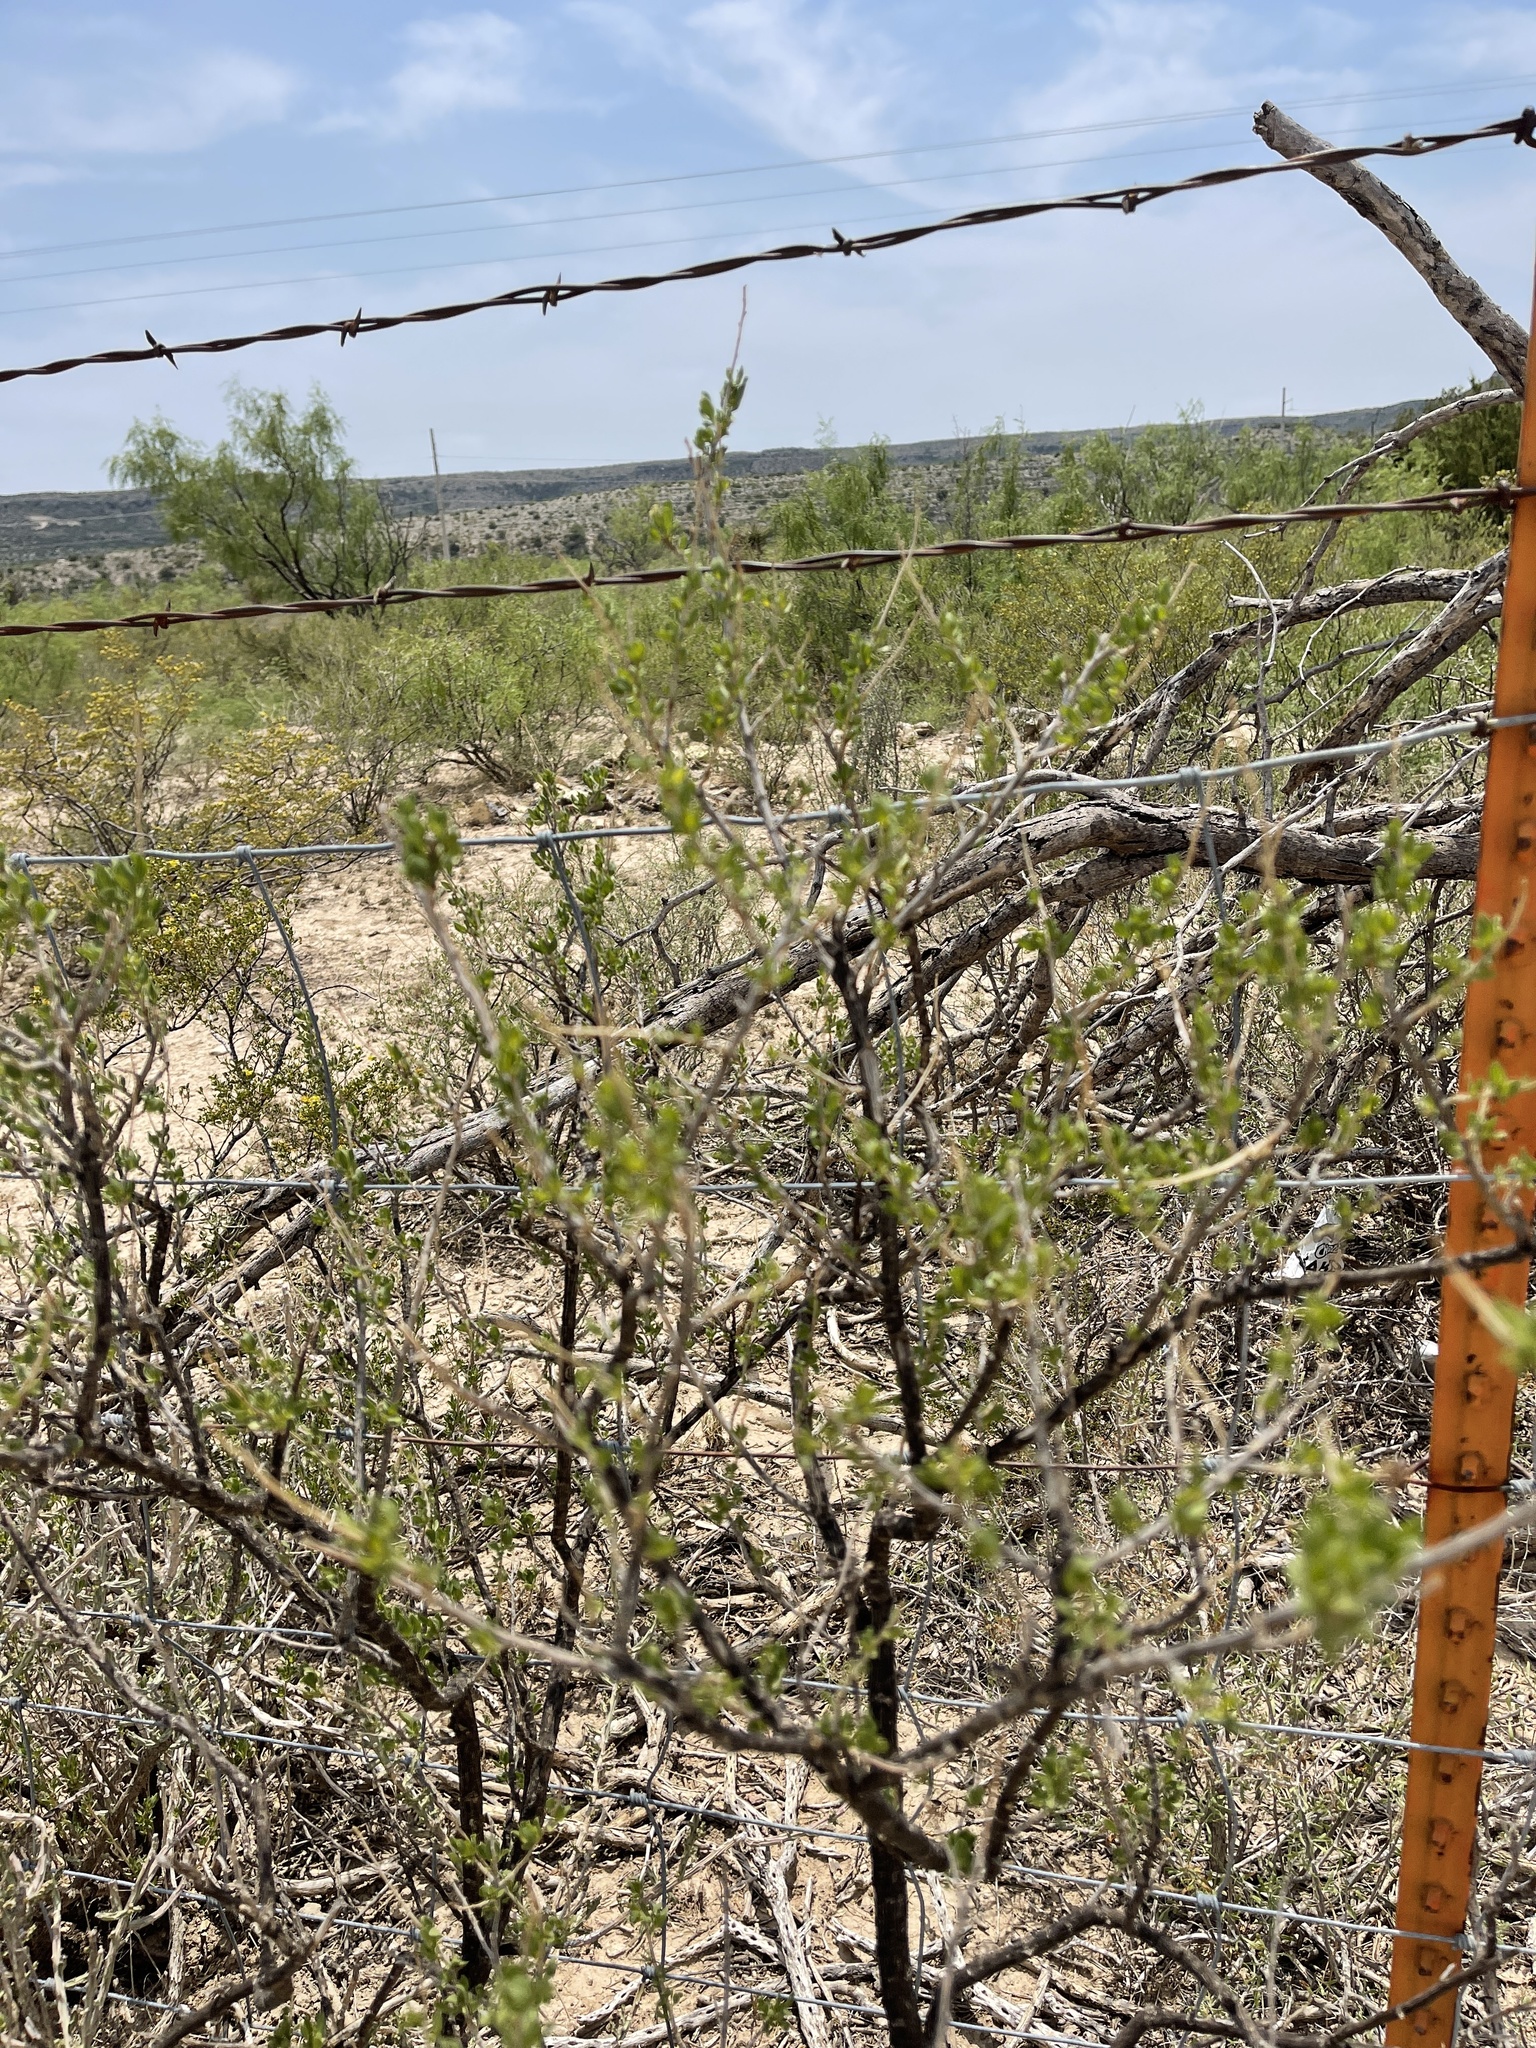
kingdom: Plantae
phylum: Tracheophyta
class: Magnoliopsida
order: Asterales
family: Asteraceae
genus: Flourensia
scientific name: Flourensia cernua
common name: Varnishbush
